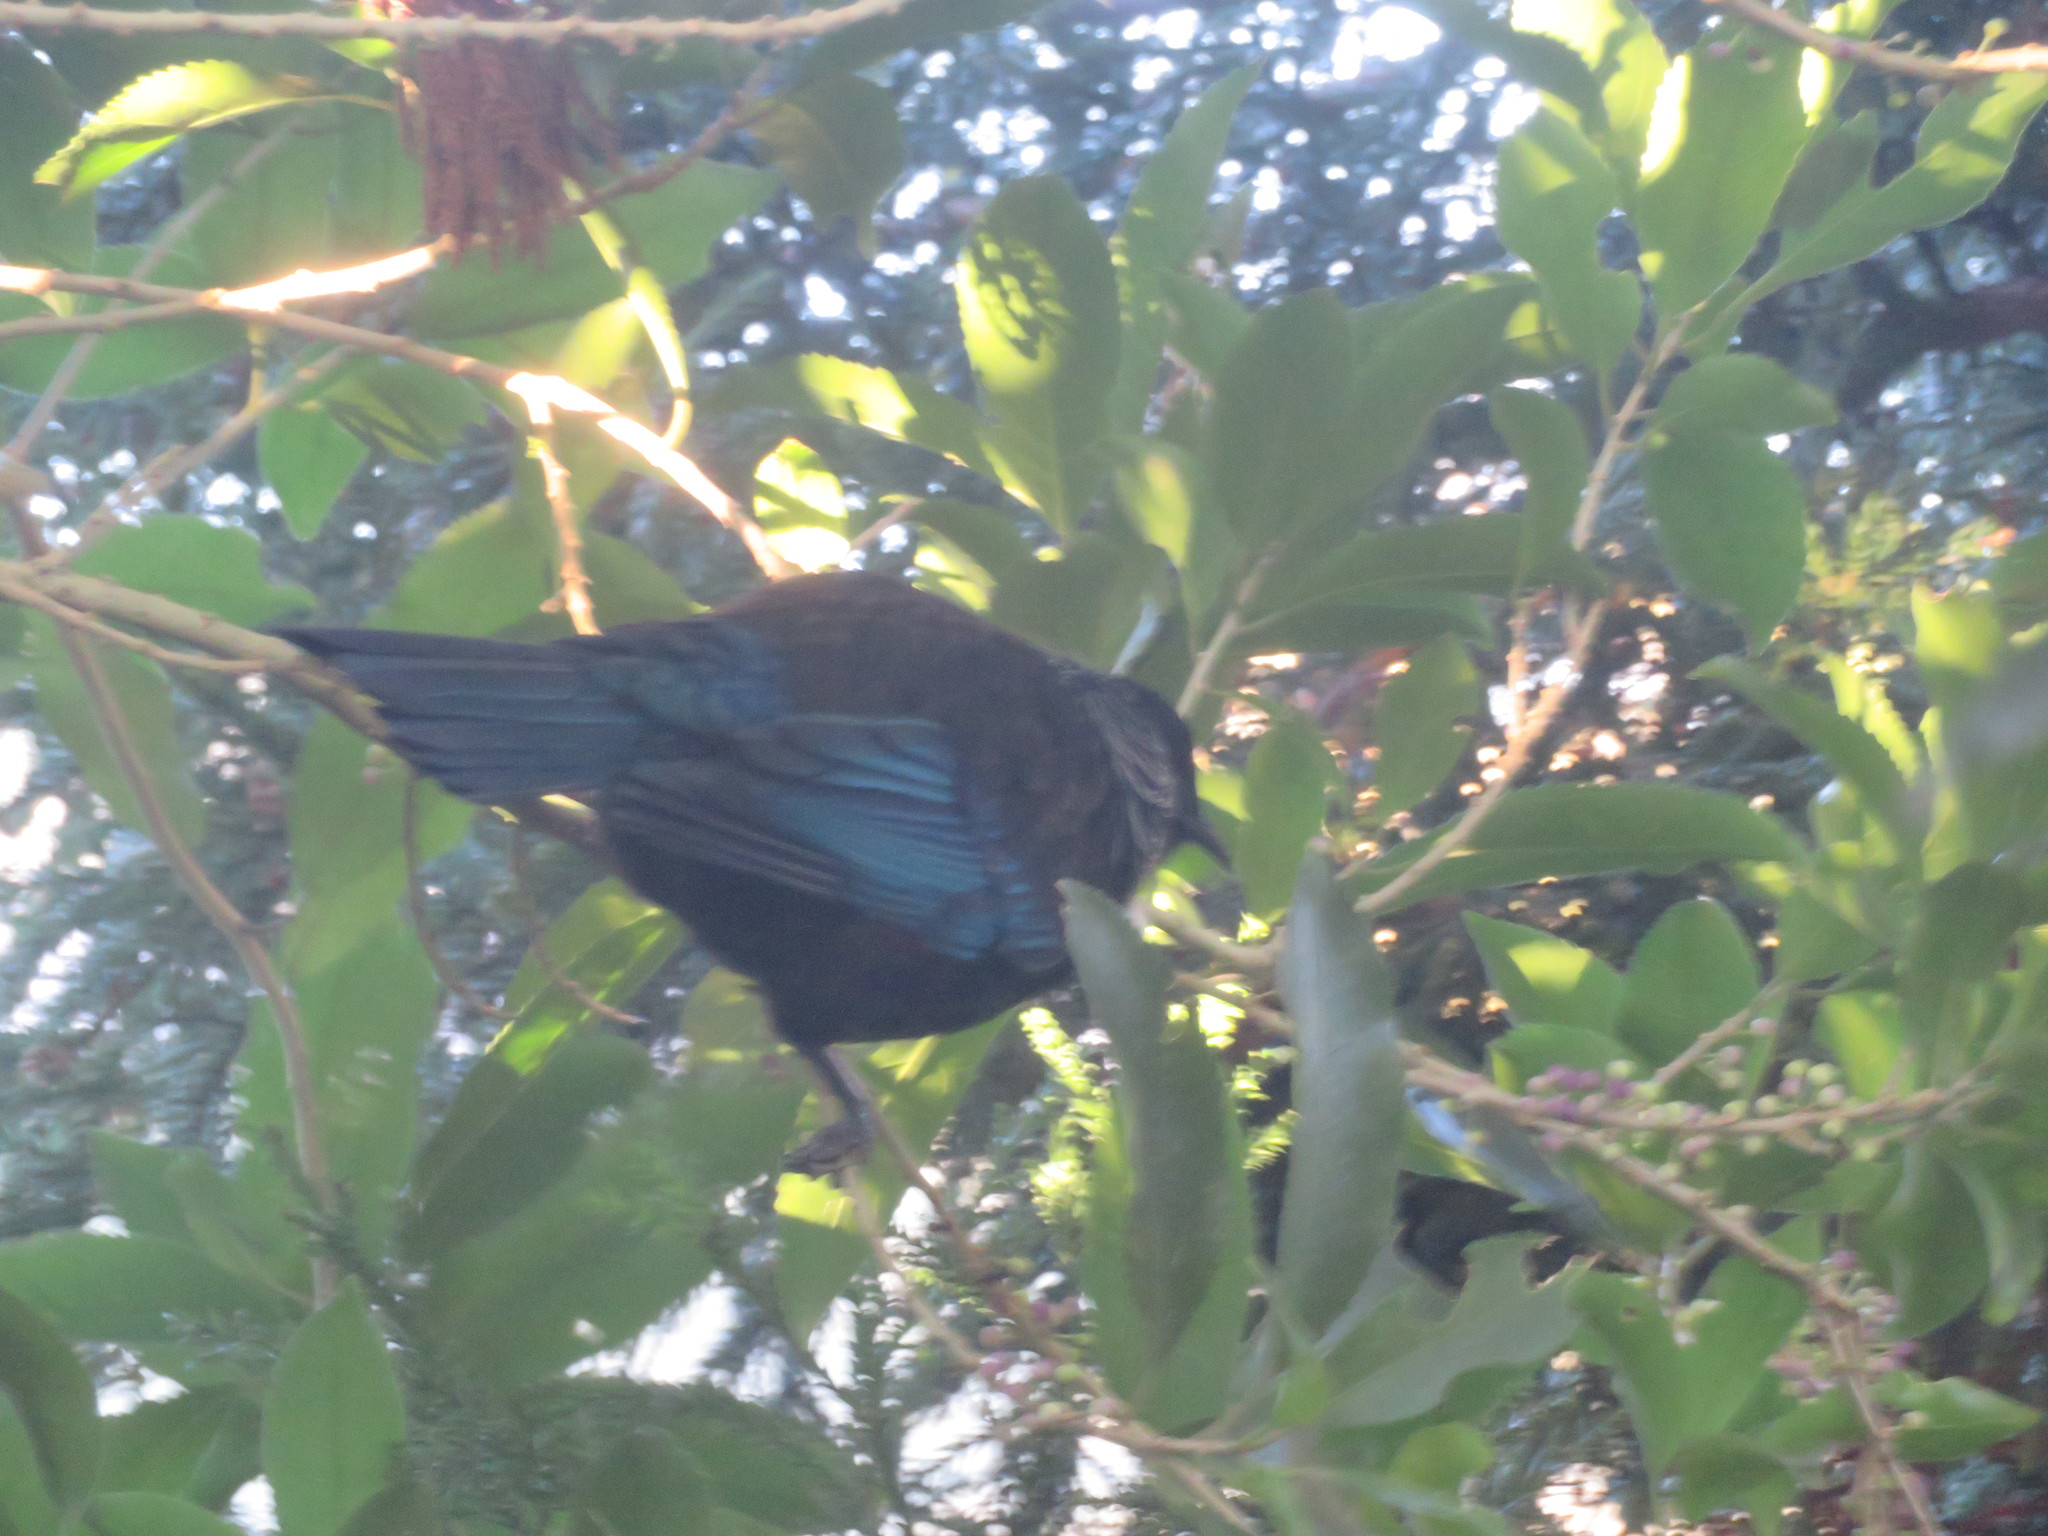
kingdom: Animalia
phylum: Chordata
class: Aves
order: Passeriformes
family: Meliphagidae
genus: Prosthemadera
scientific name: Prosthemadera novaeseelandiae
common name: Tui
